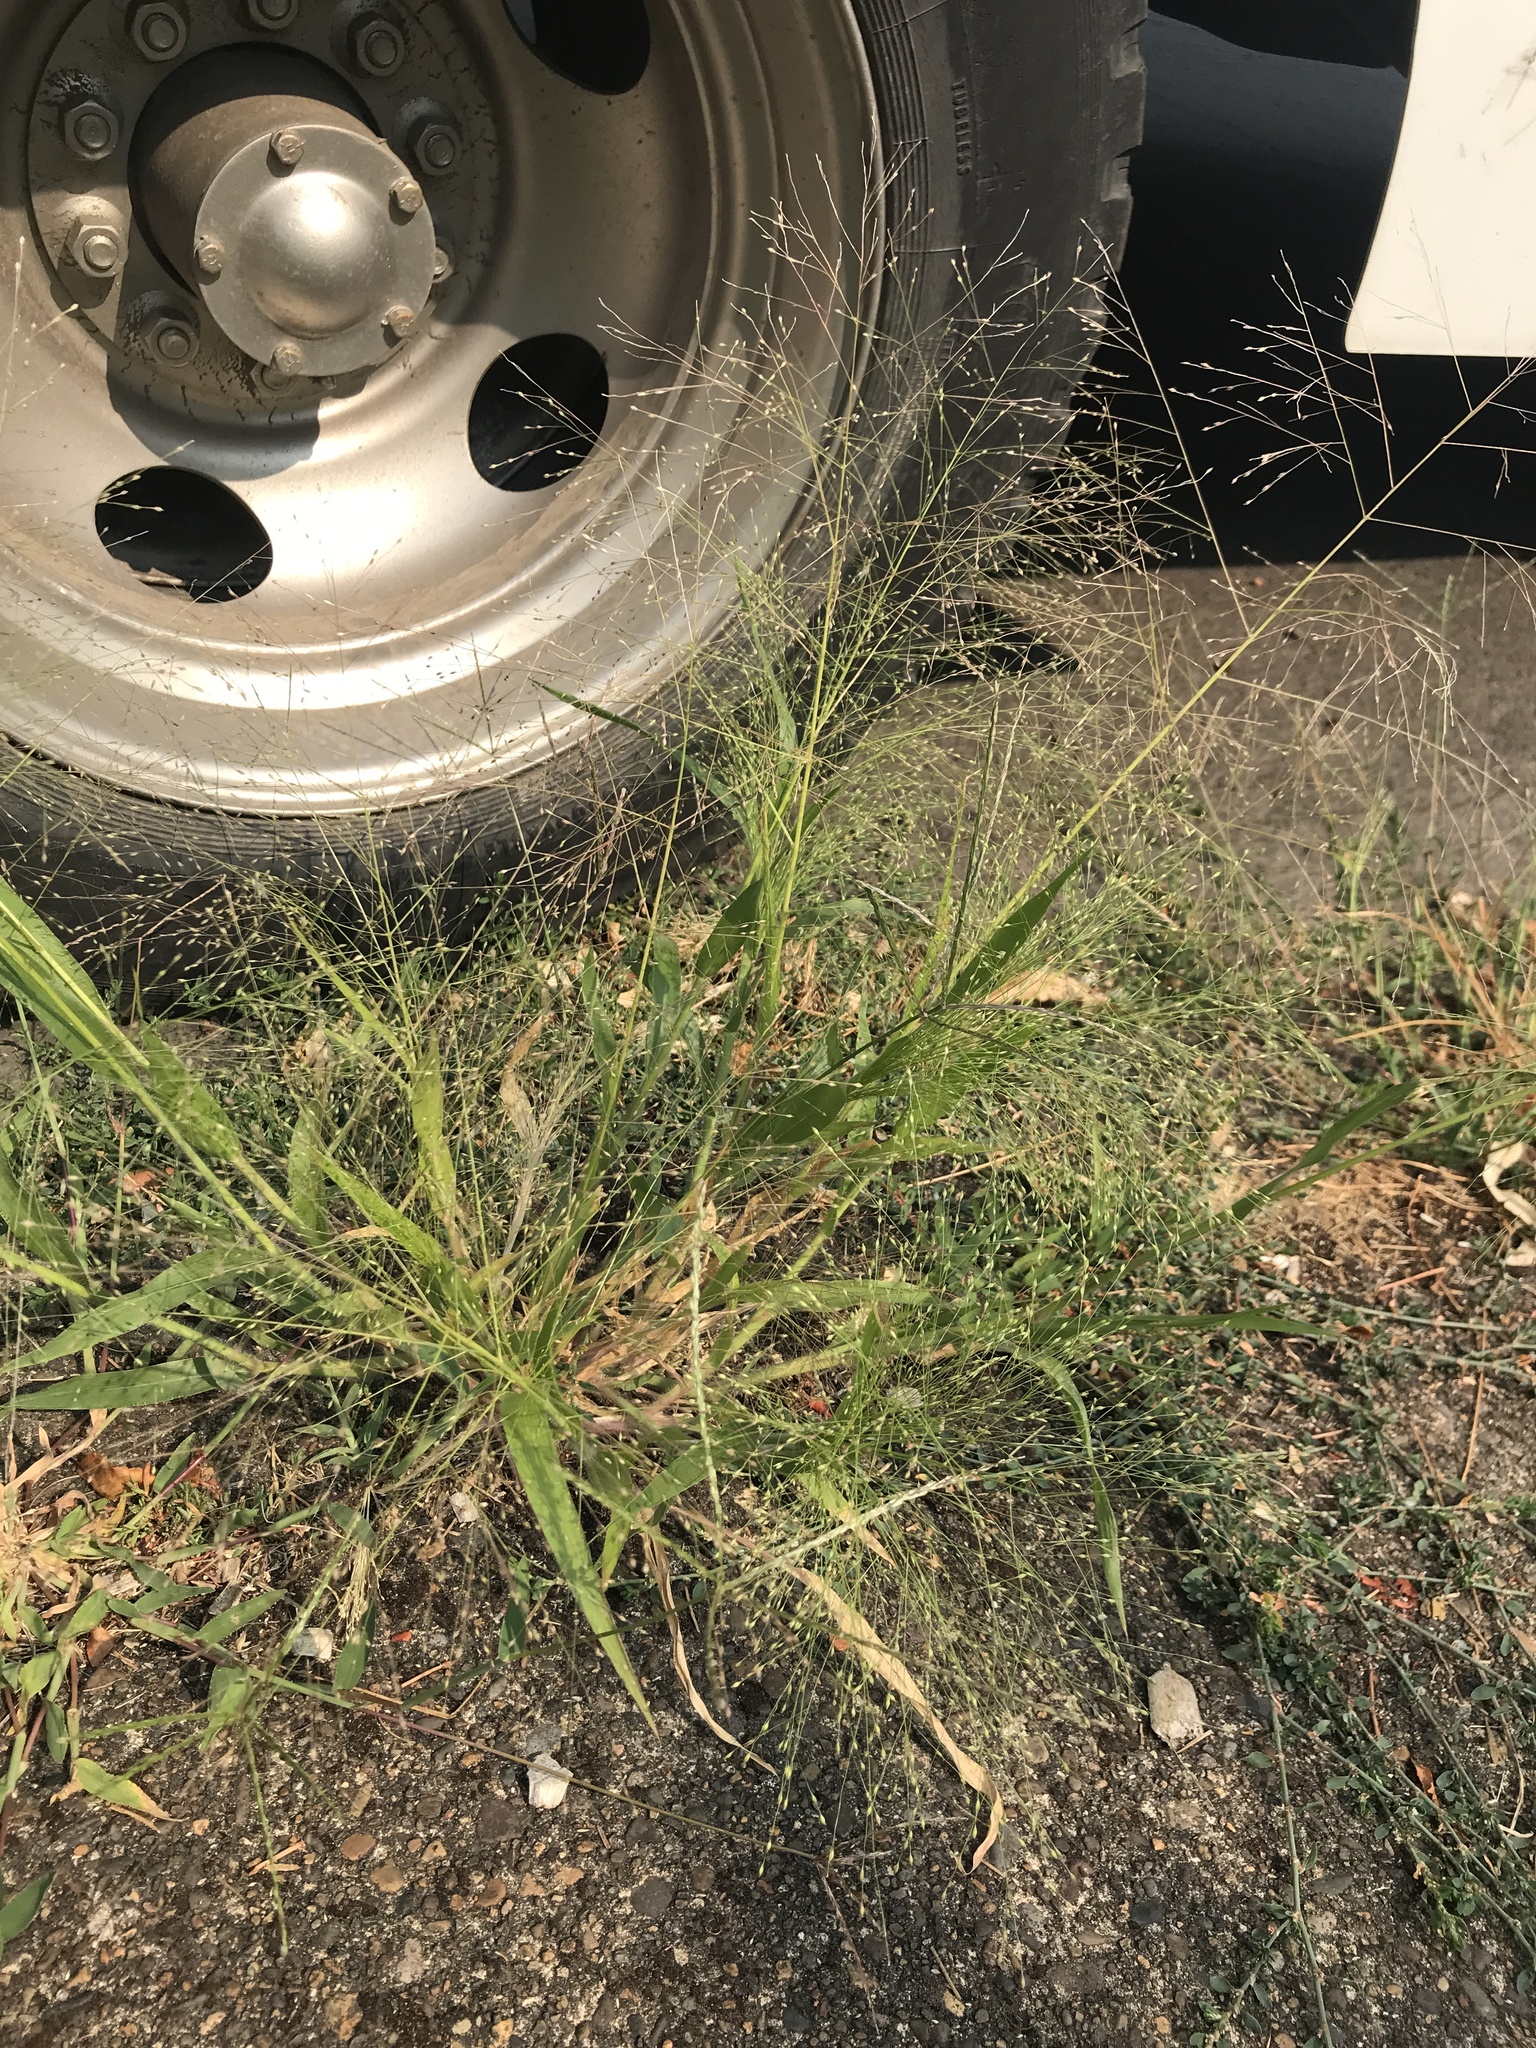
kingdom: Plantae
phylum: Tracheophyta
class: Liliopsida
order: Poales
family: Poaceae
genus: Panicum
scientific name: Panicum capillare
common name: Witch-grass
